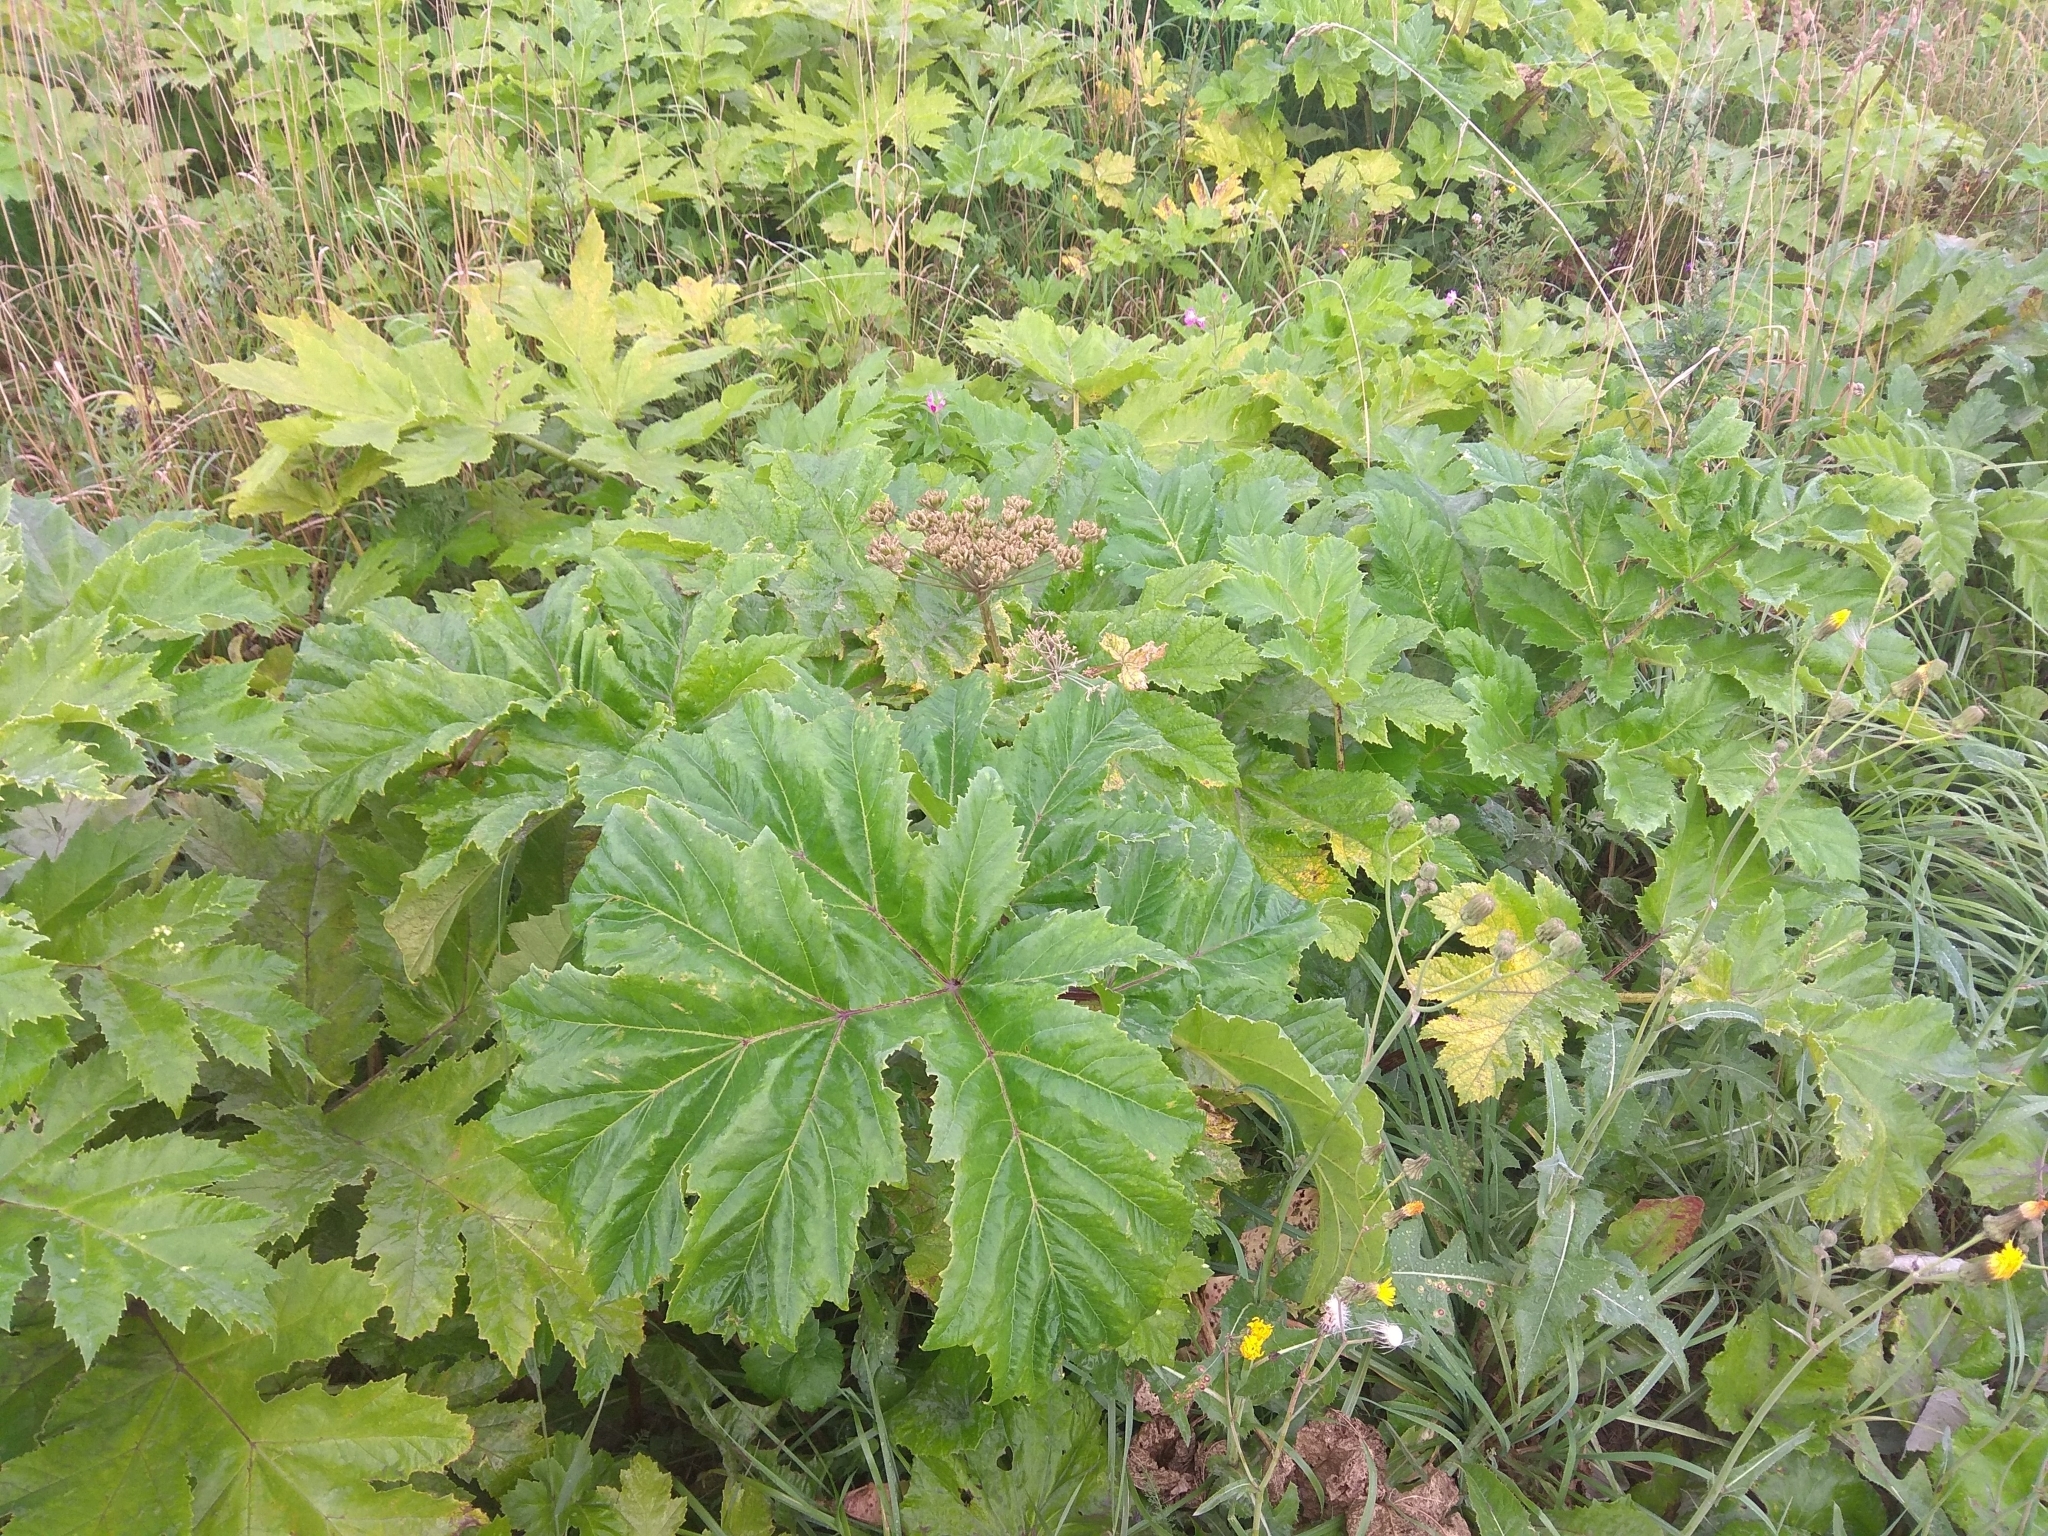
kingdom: Plantae
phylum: Tracheophyta
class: Magnoliopsida
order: Apiales
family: Apiaceae
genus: Heracleum
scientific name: Heracleum sosnowskyi
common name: Sosnowsky's hogweed
